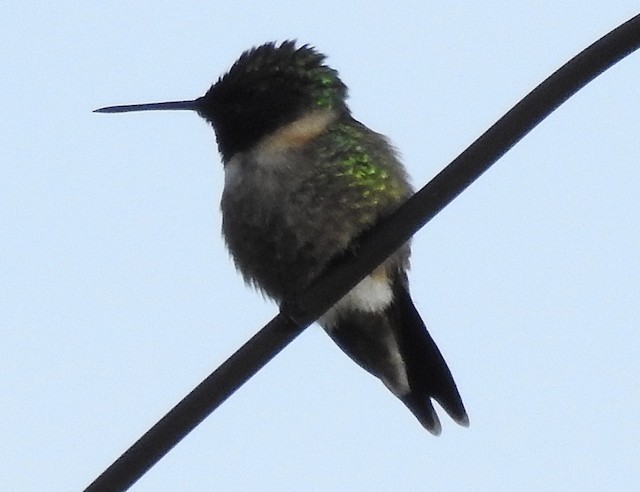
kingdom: Animalia
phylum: Chordata
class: Aves
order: Apodiformes
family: Trochilidae
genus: Archilochus
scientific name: Archilochus colubris
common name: Ruby-throated hummingbird
